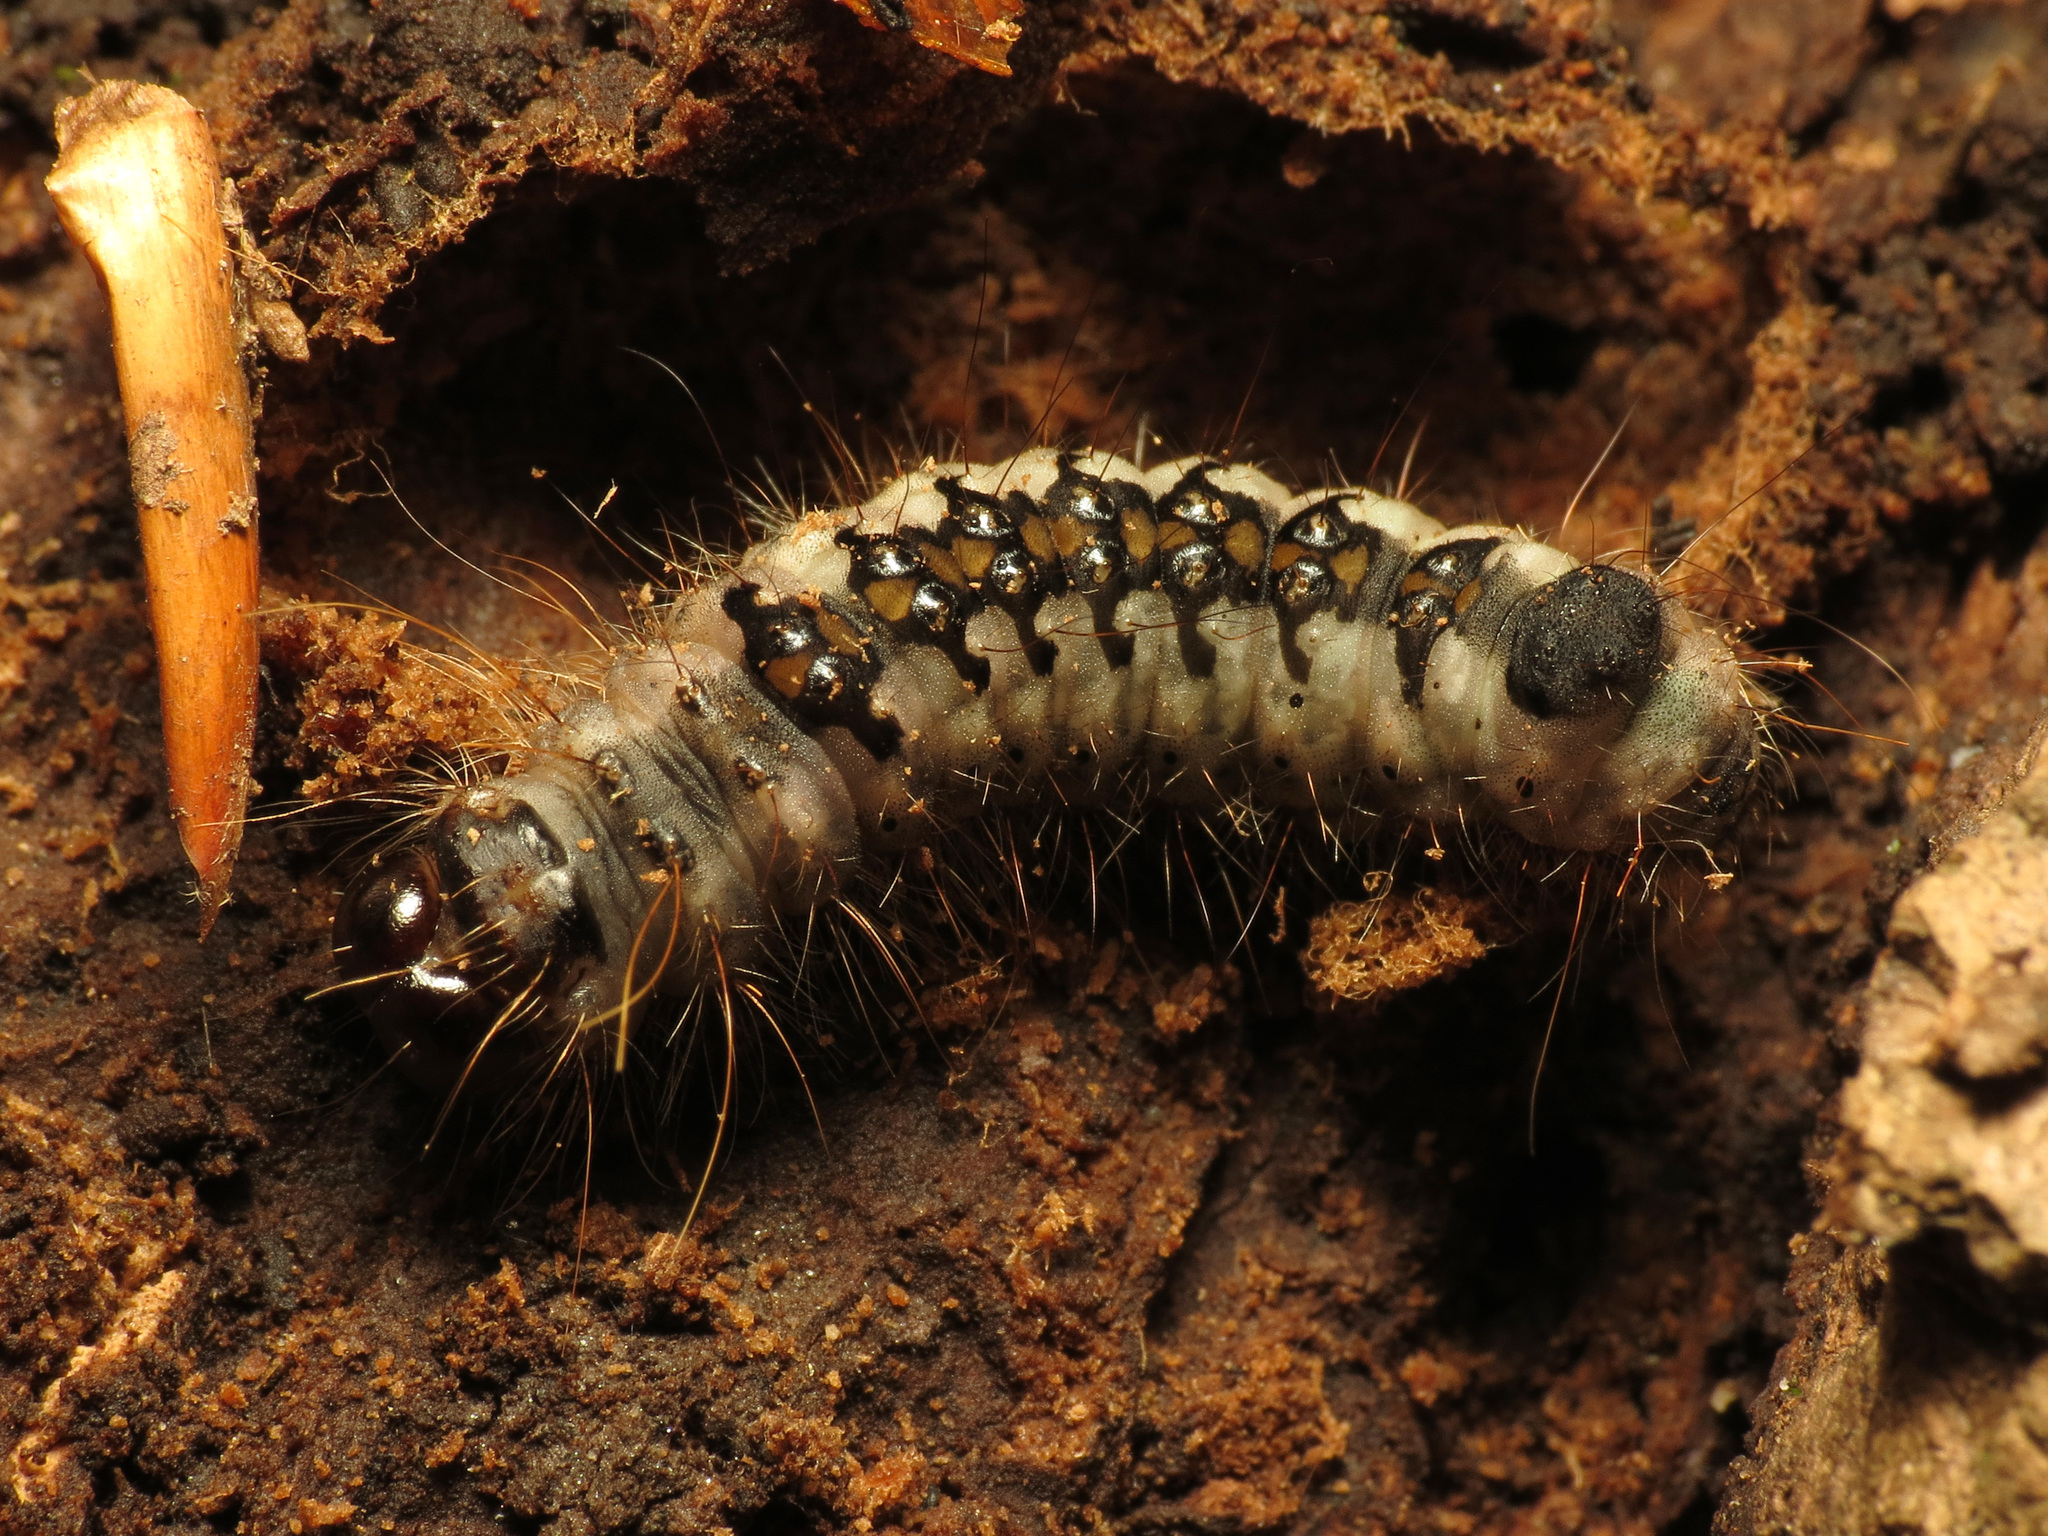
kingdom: Animalia
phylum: Arthropoda
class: Insecta
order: Lepidoptera
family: Noctuidae
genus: Acronicta
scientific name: Acronicta interrupta
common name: Interrupted dagger
